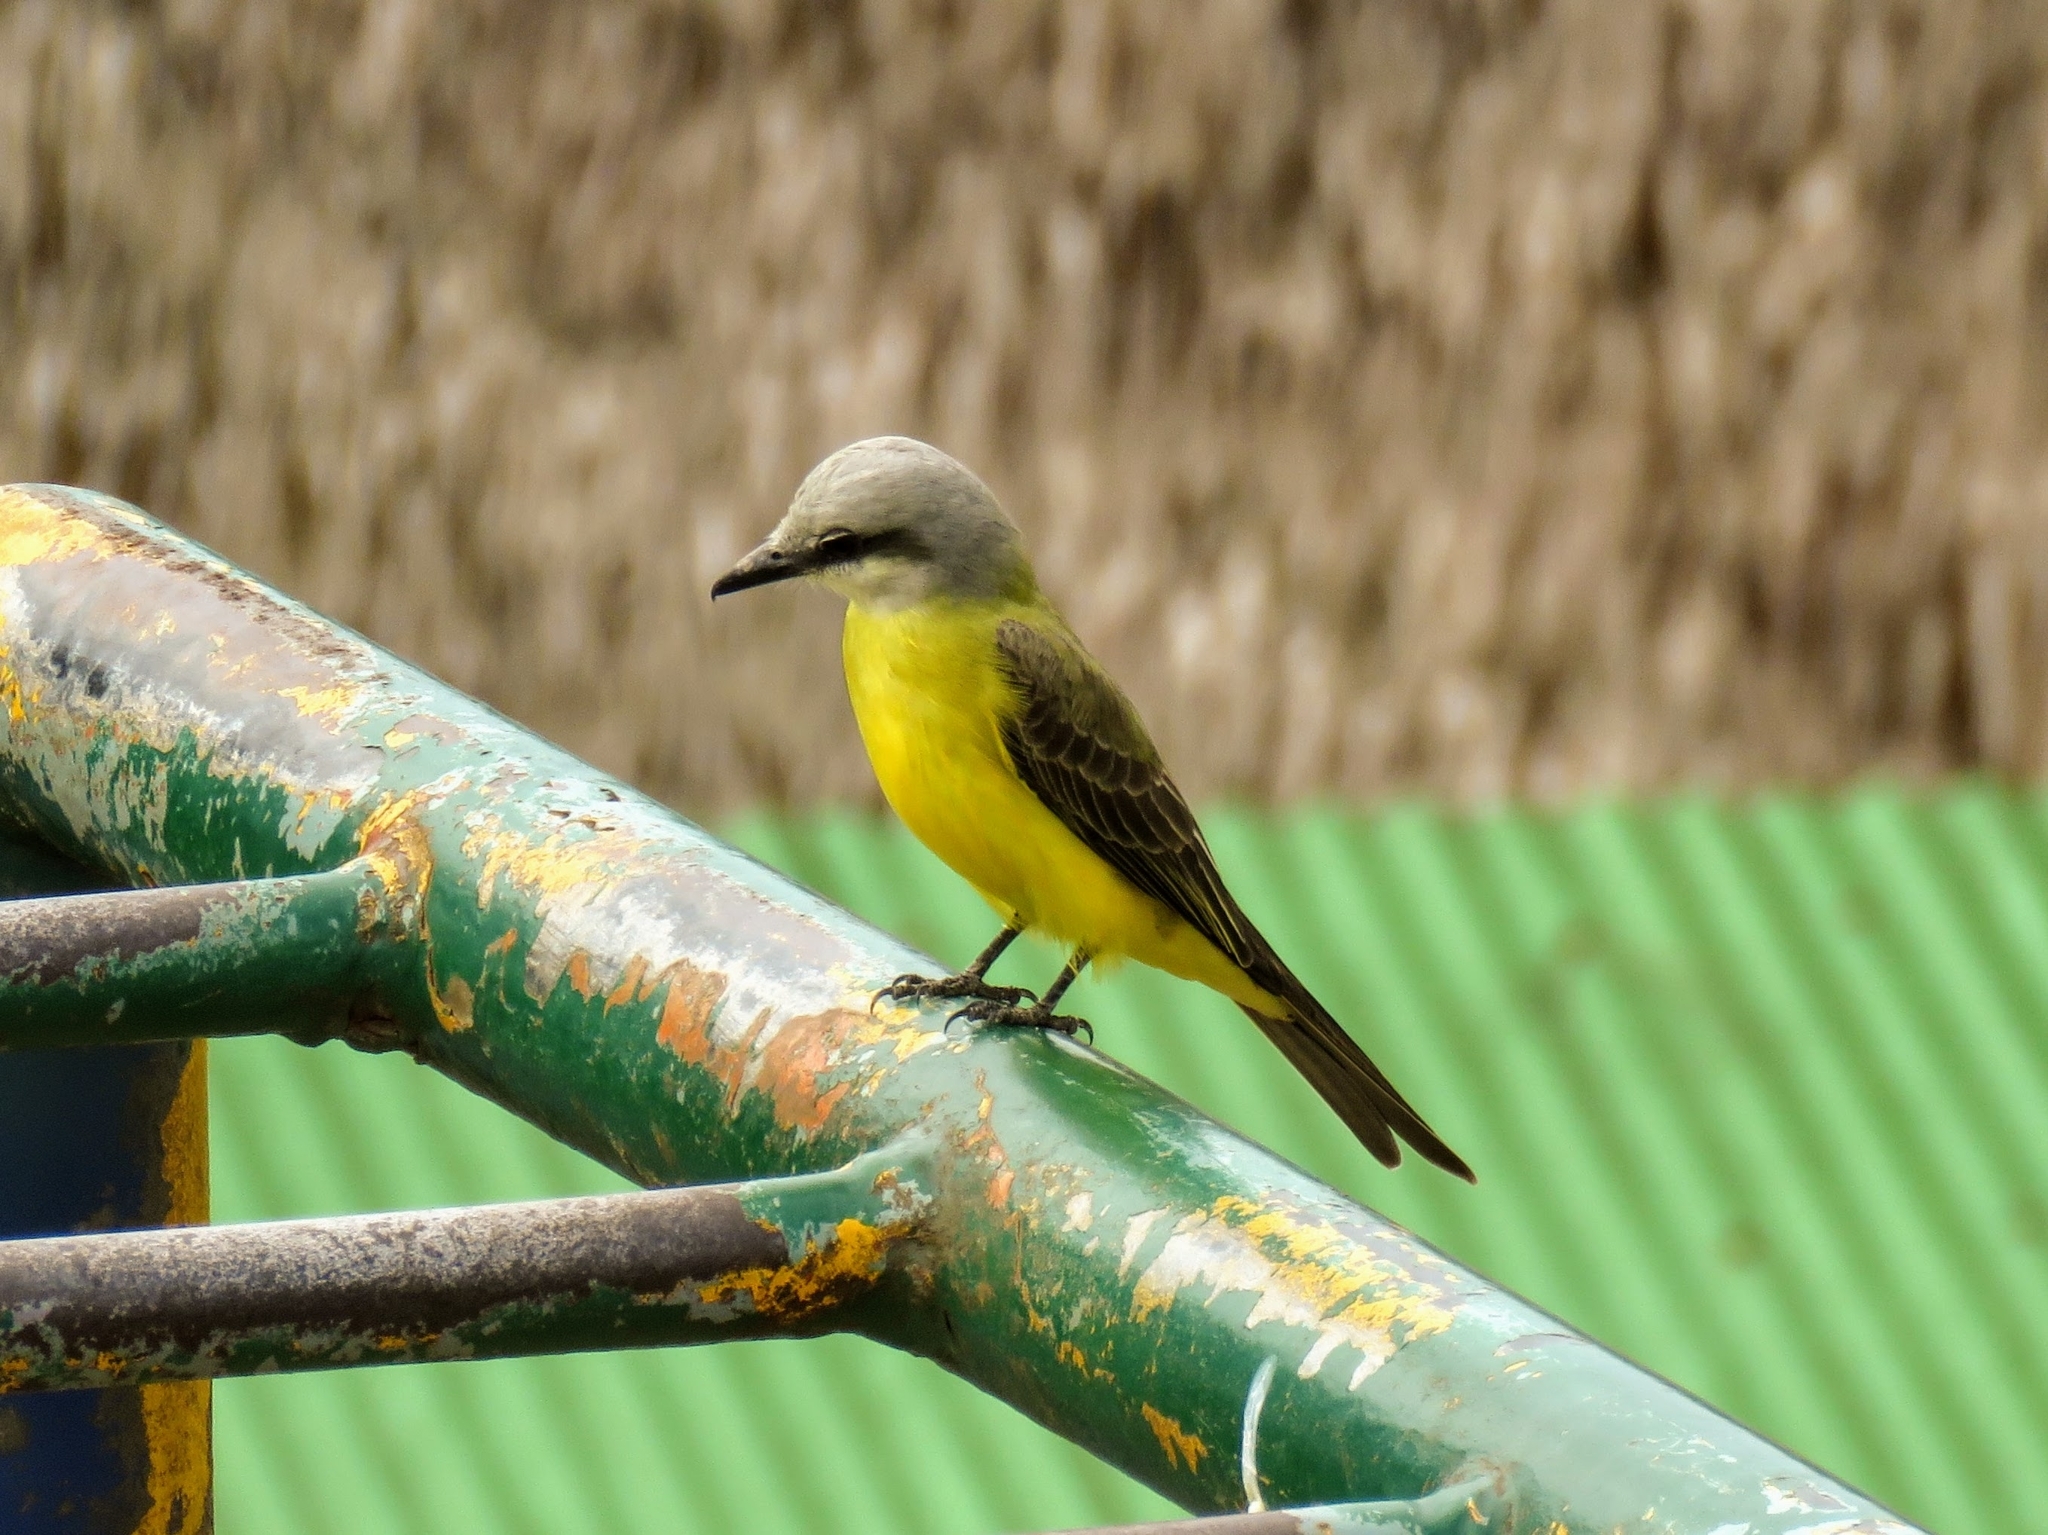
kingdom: Animalia
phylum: Chordata
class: Aves
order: Passeriformes
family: Tyrannidae
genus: Tyrannus
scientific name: Tyrannus albogularis
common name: White-throated kingbird
